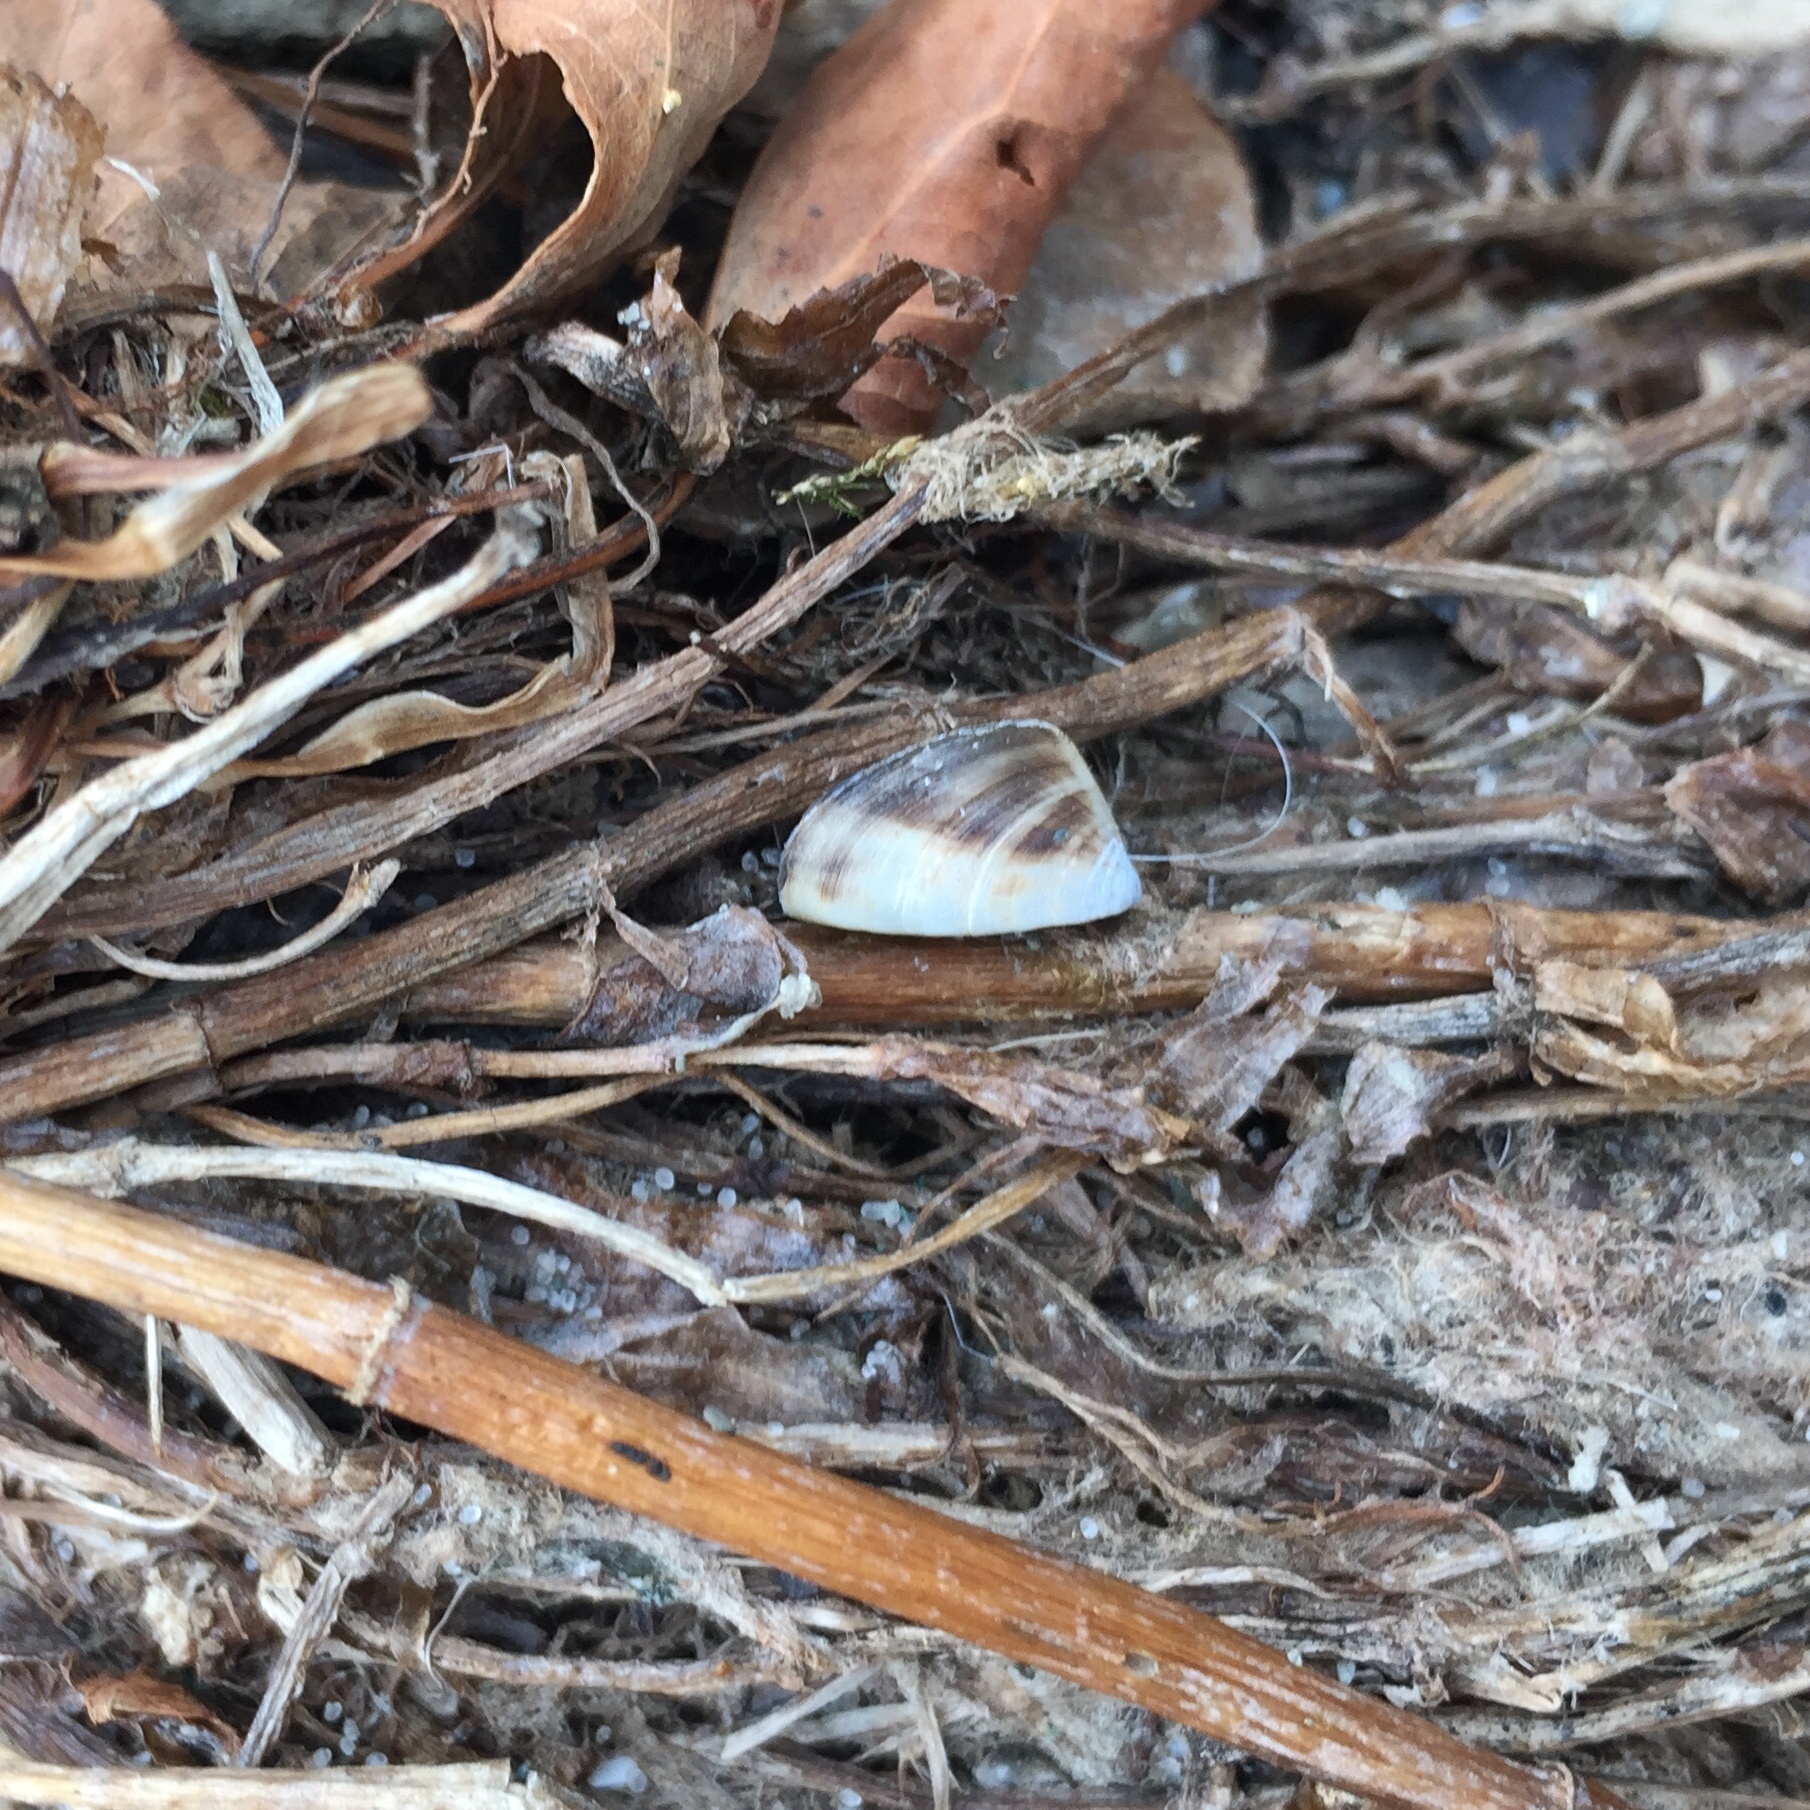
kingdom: Animalia
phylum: Mollusca
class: Bivalvia
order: Myida
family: Dreissenidae
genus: Dreissena
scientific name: Dreissena polymorpha
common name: Zebra mussel
